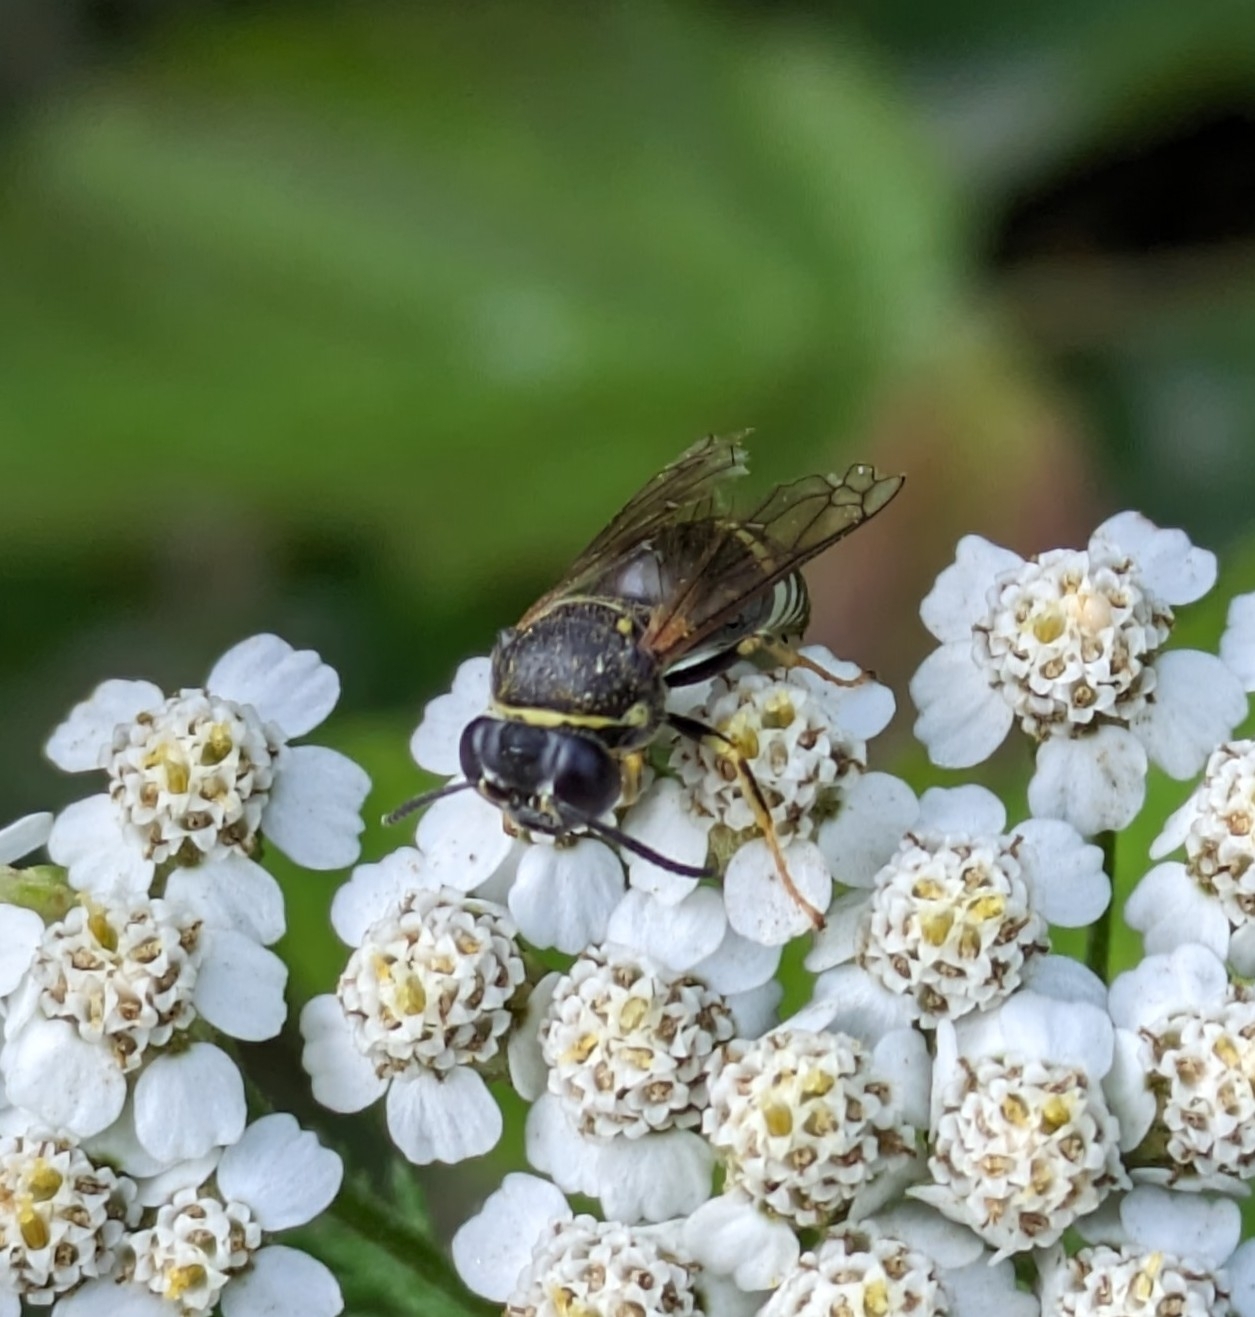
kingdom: Animalia
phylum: Arthropoda
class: Insecta
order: Hymenoptera
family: Crabronidae
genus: Bicyrtes
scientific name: Bicyrtes quadrifasciatus
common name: Four-banded stink bug hunter wasp
